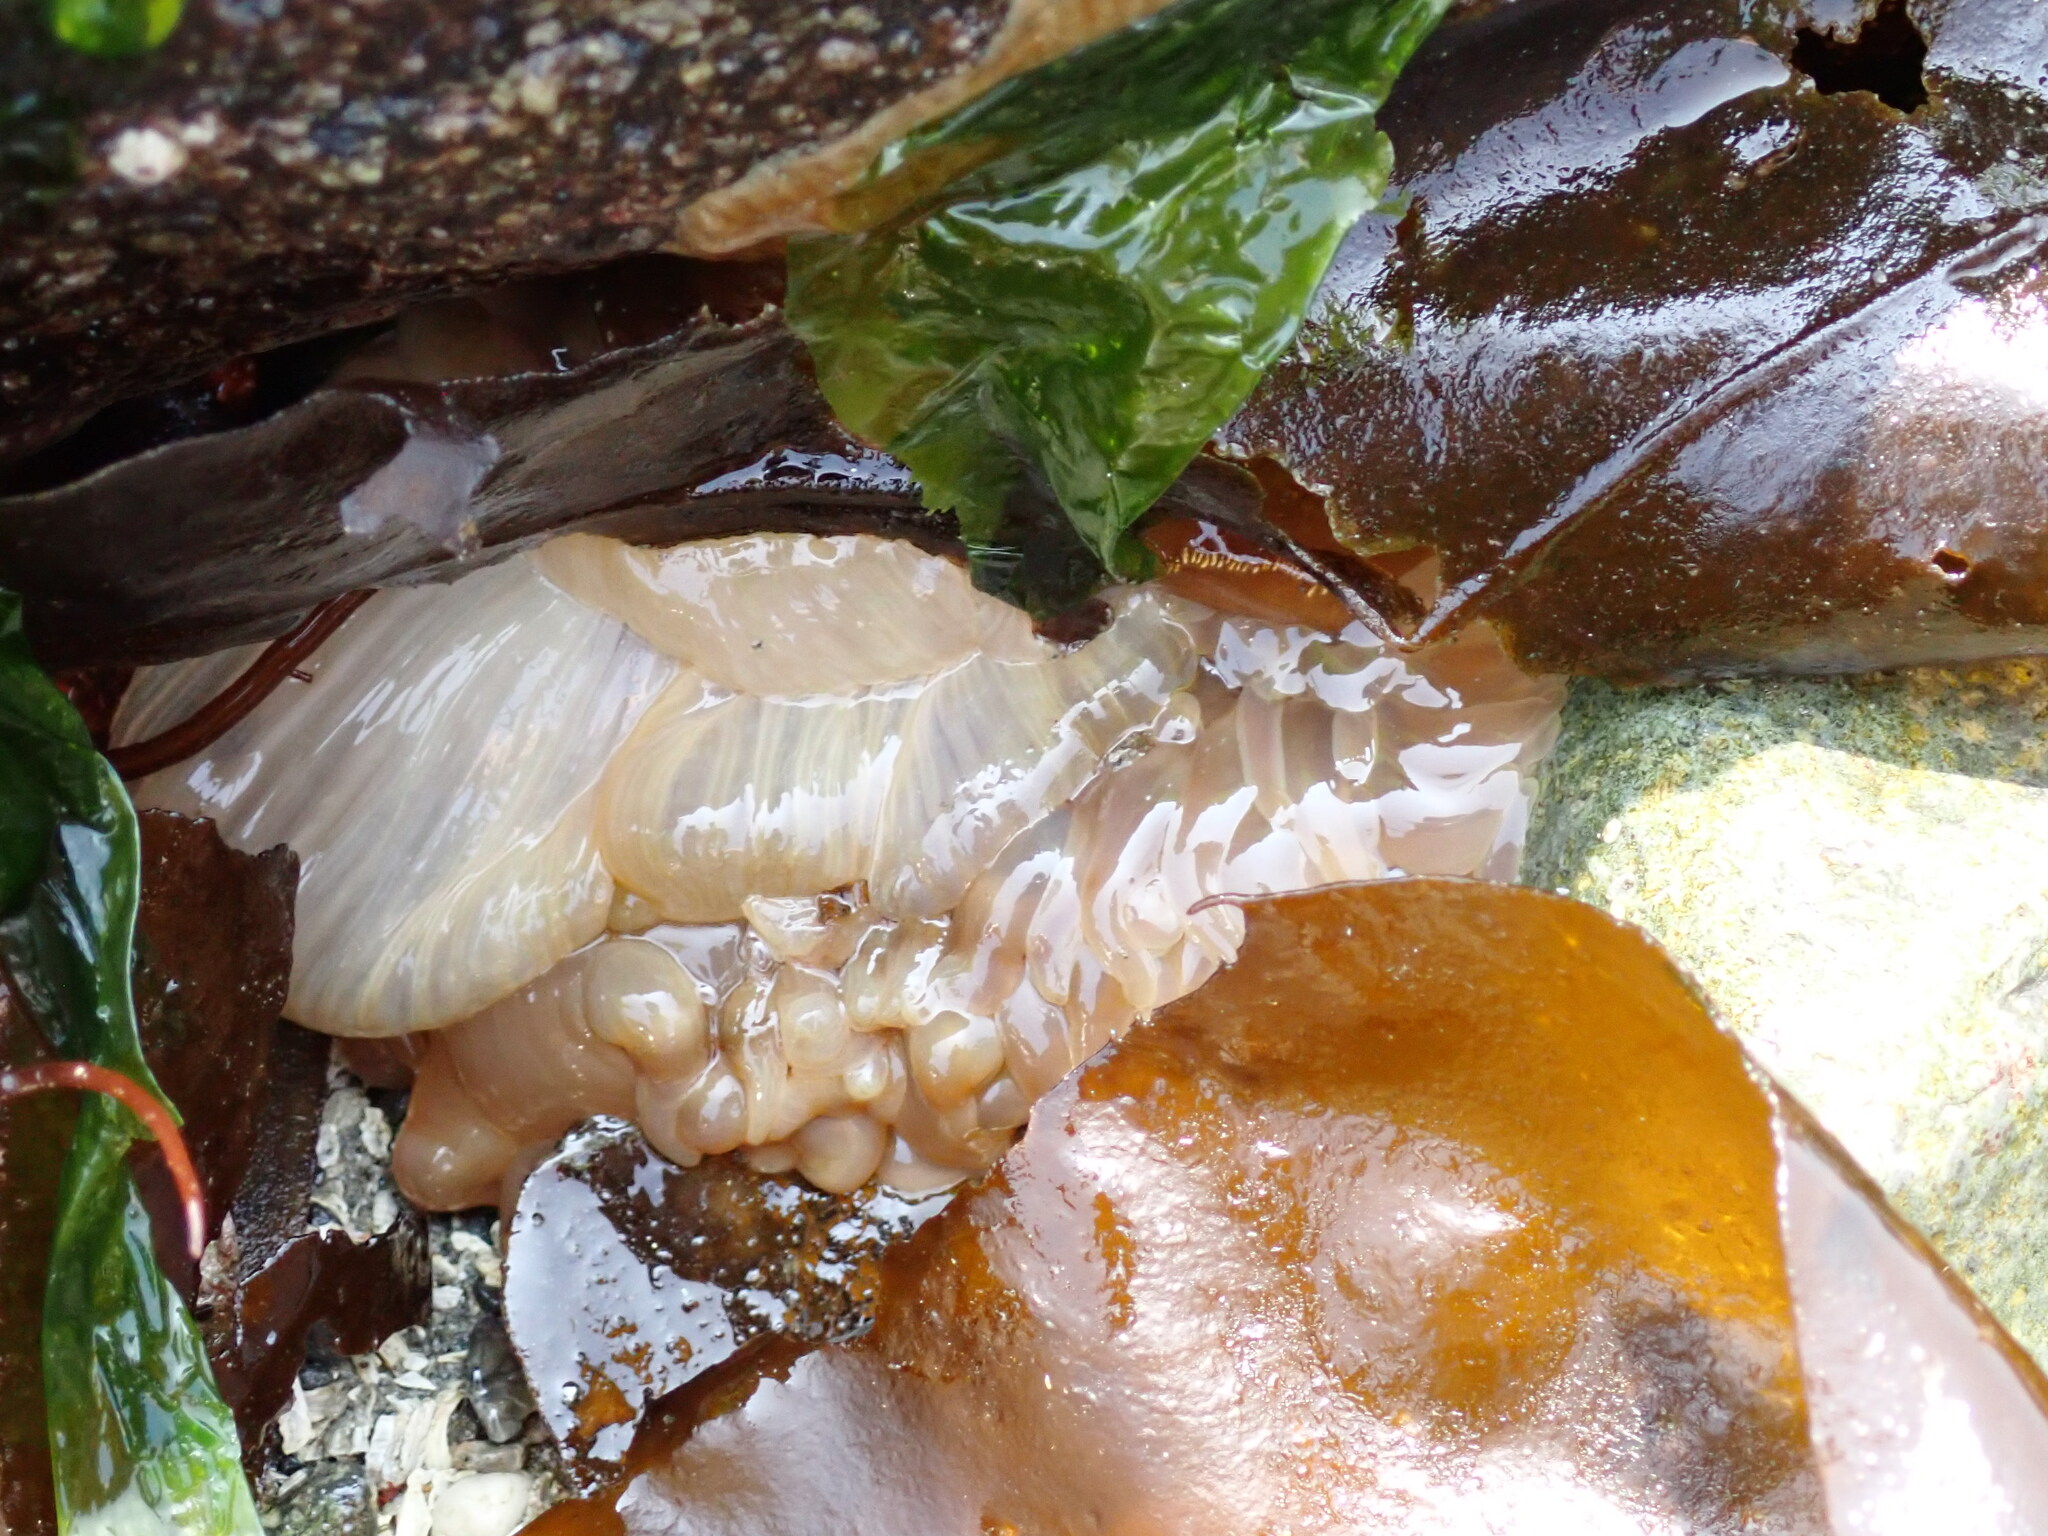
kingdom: Animalia
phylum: Cnidaria
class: Anthozoa
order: Actiniaria
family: Actiniidae
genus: Urticina
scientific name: Urticina grebelnyi
